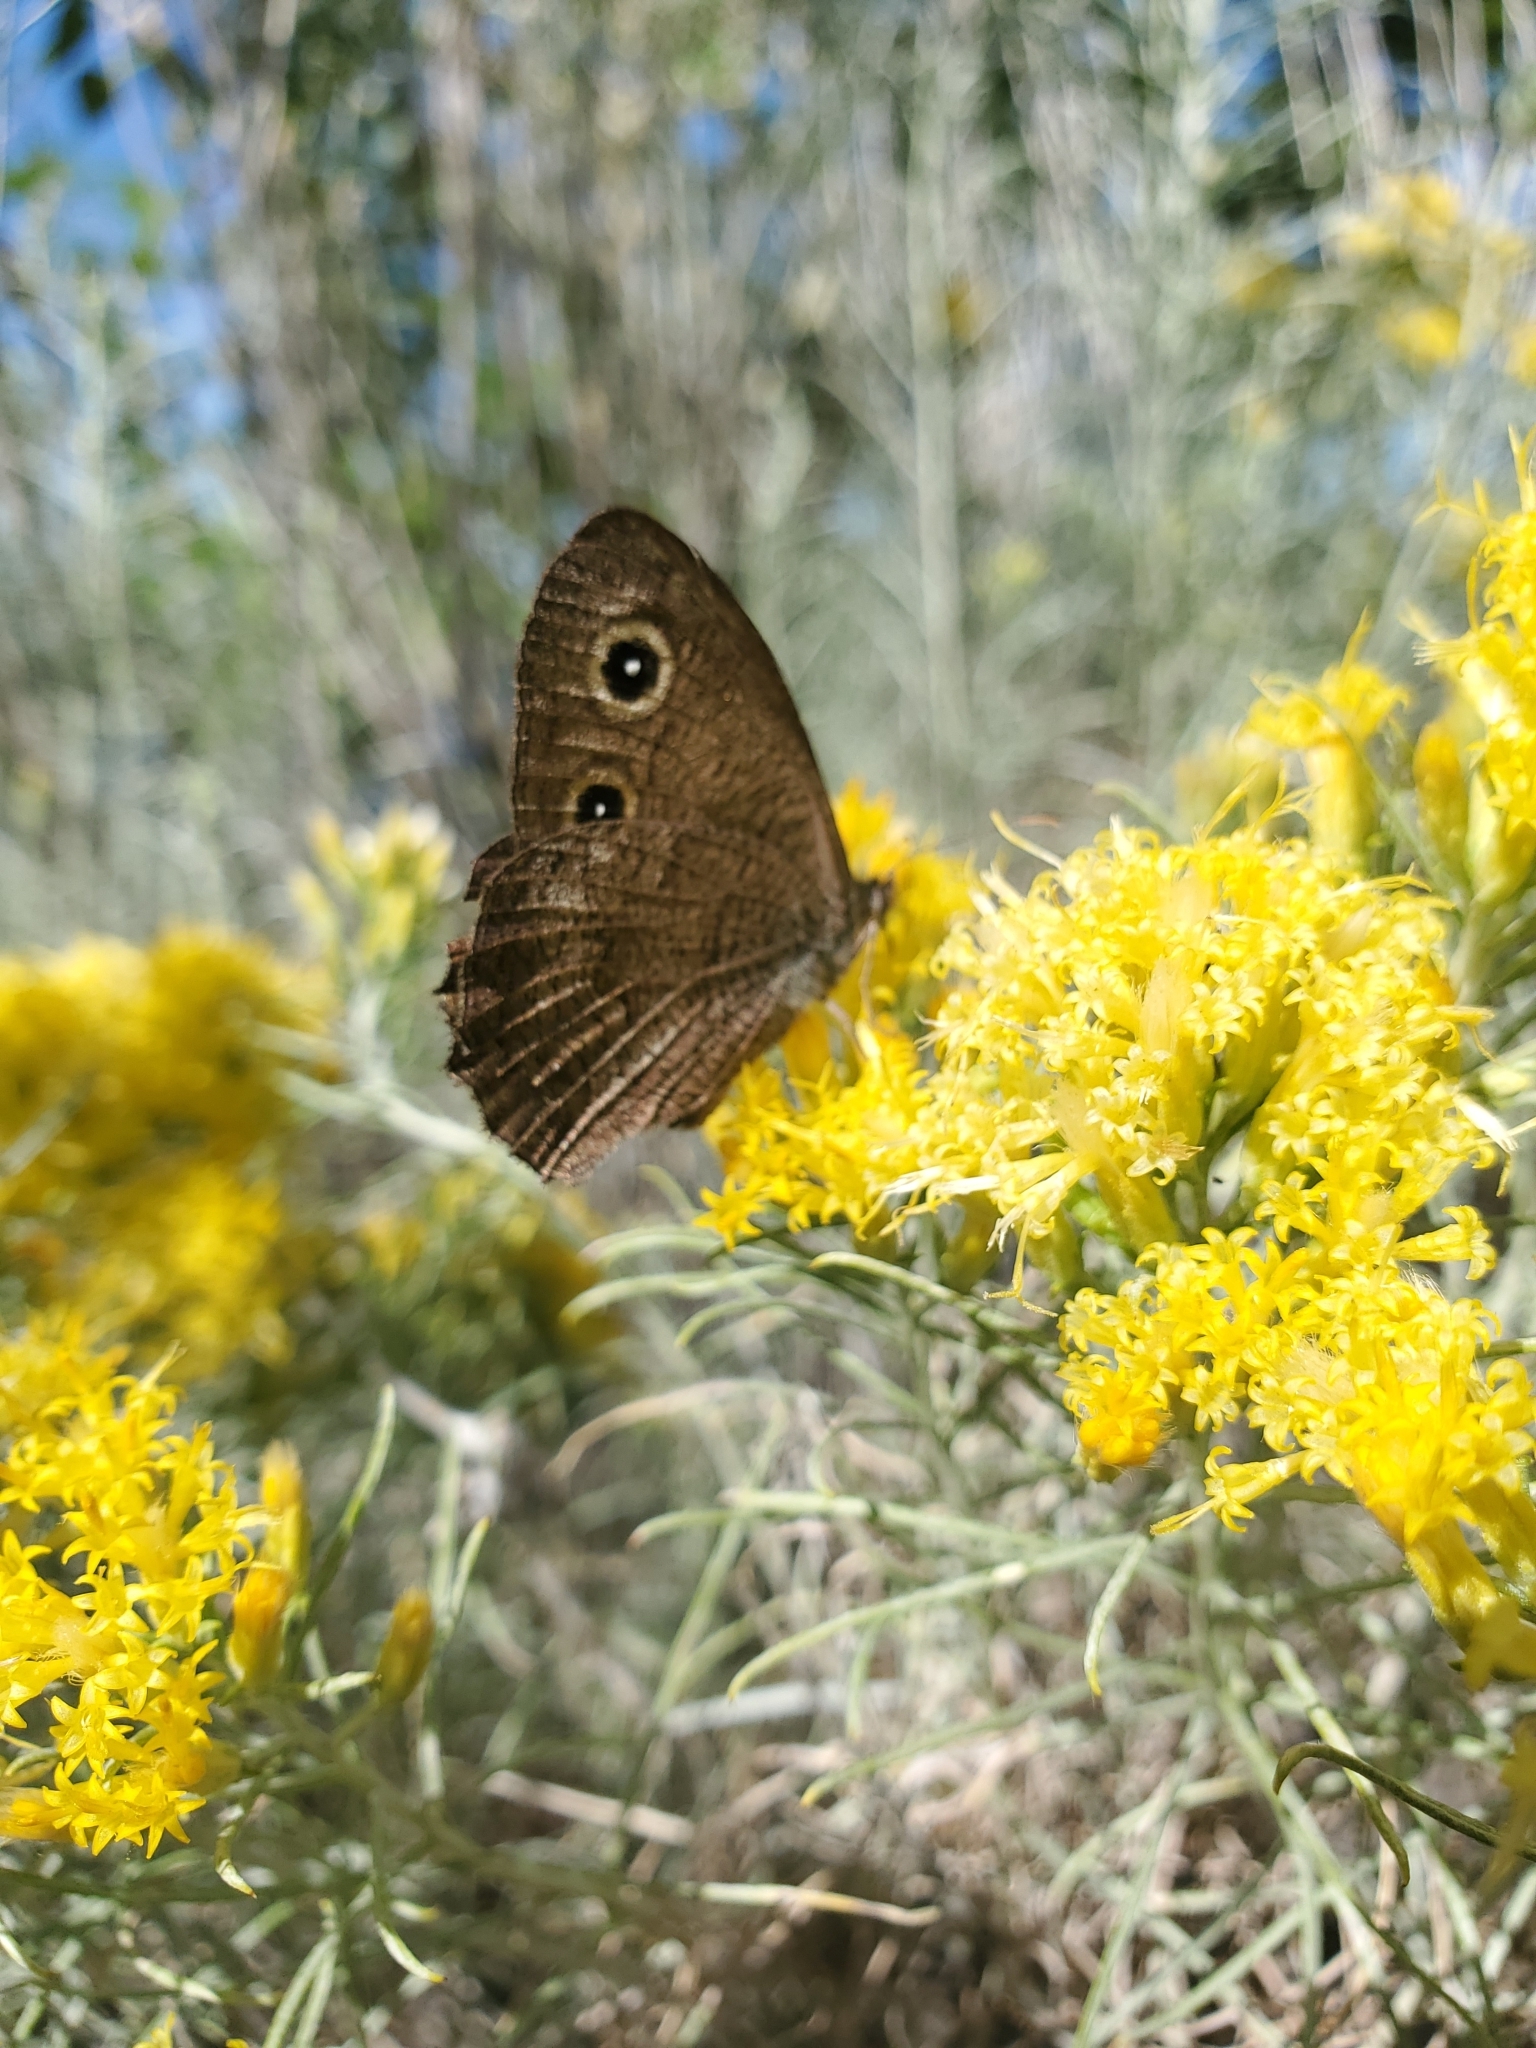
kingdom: Animalia
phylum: Arthropoda
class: Insecta
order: Lepidoptera
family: Nymphalidae
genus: Cercyonis
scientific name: Cercyonis pegala
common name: Common wood-nymph
